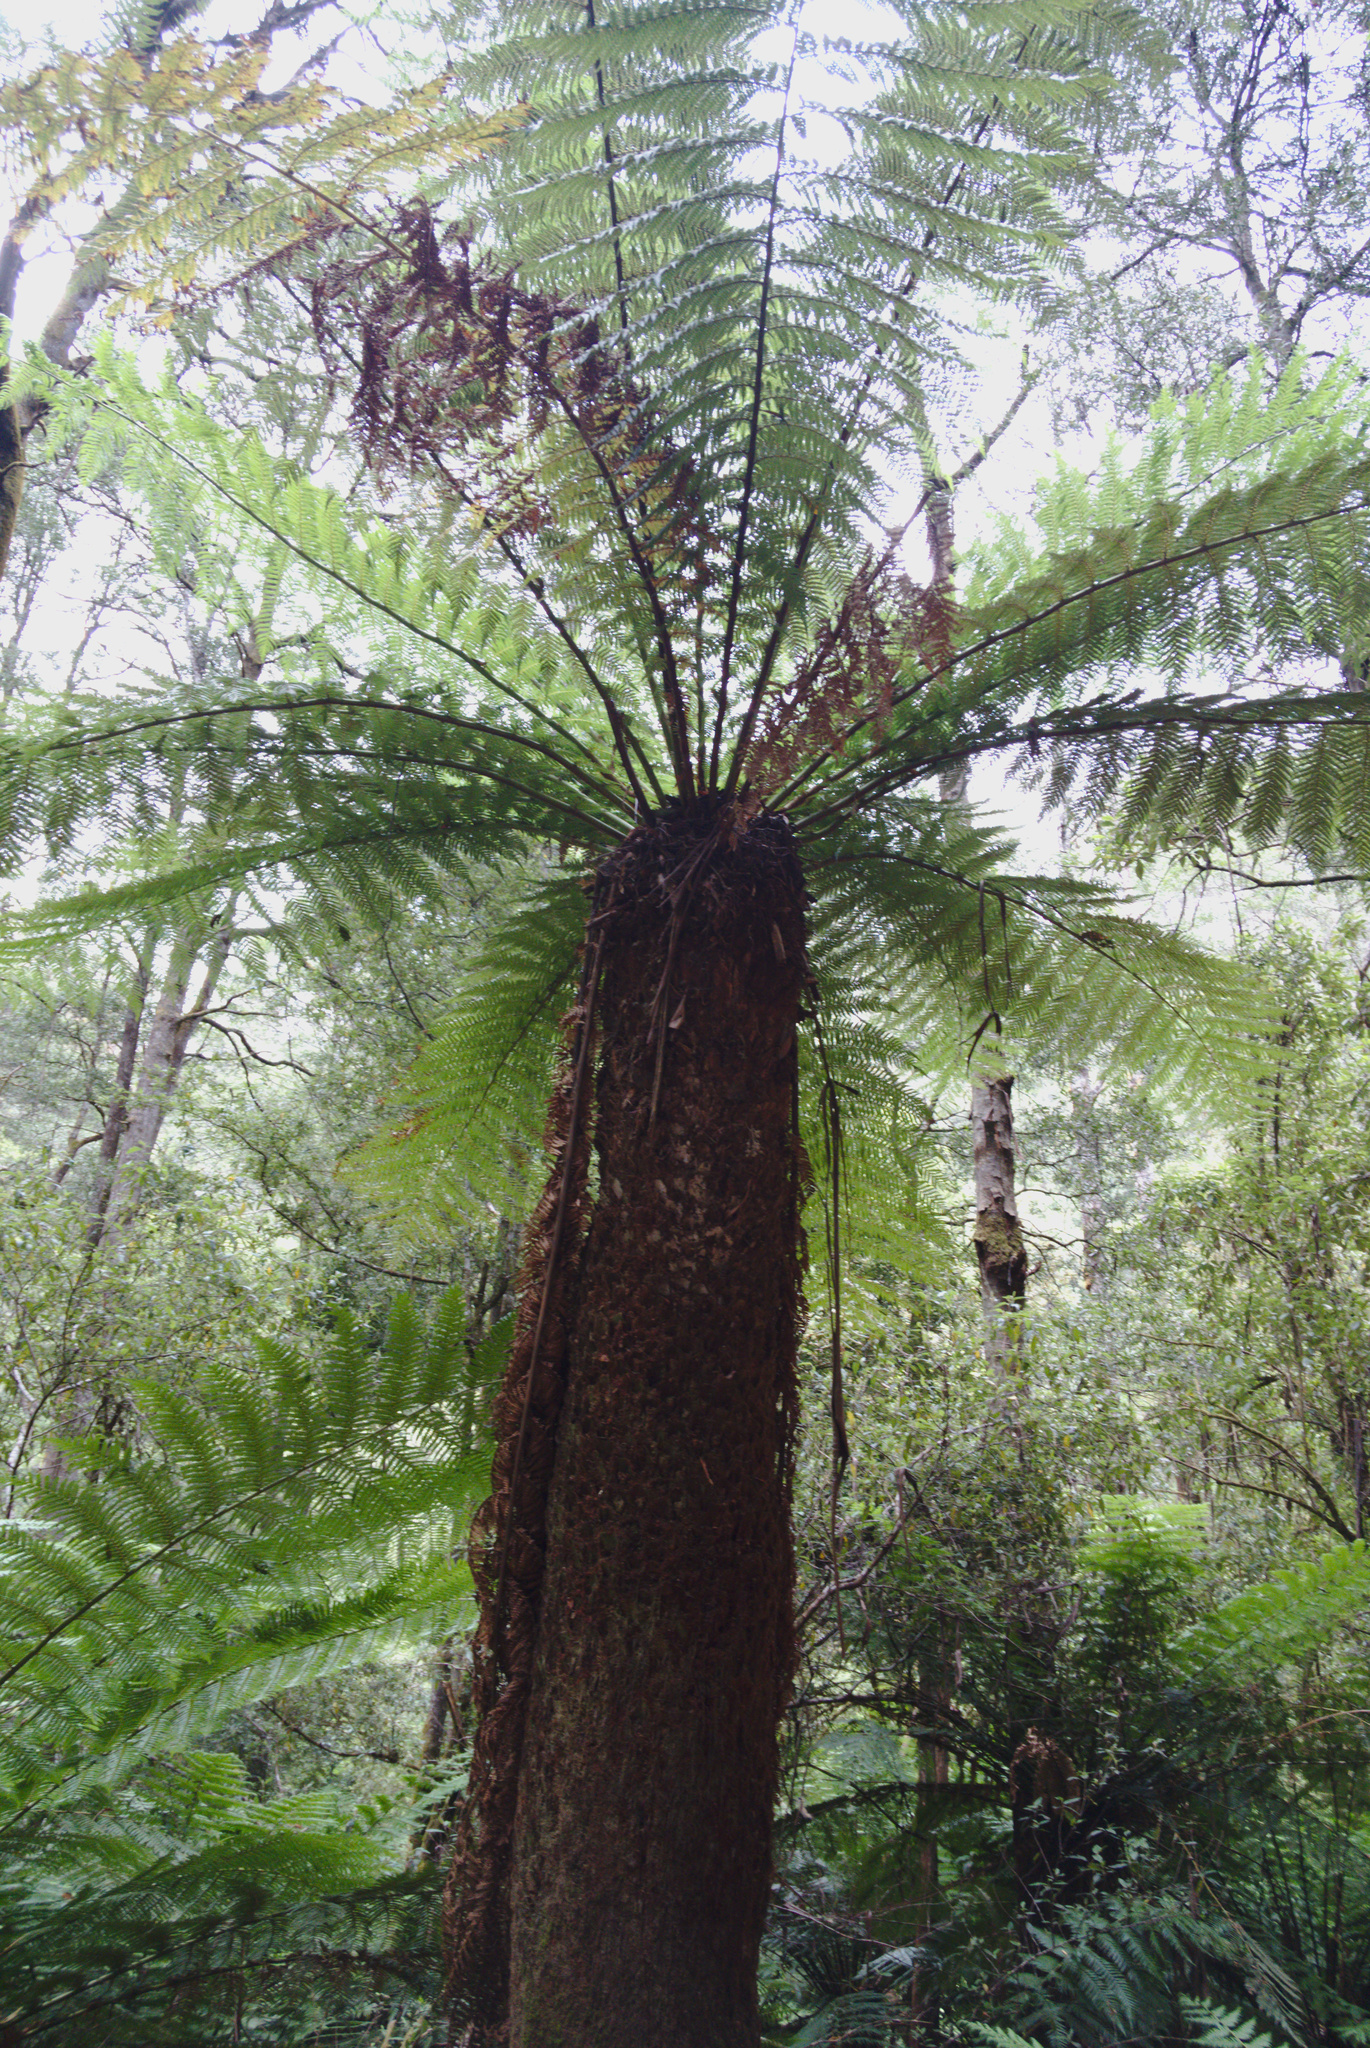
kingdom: Plantae
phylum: Tracheophyta
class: Polypodiopsida
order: Cyatheales
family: Dicksoniaceae
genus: Dicksonia
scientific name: Dicksonia antarctica
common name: Australian treefern
